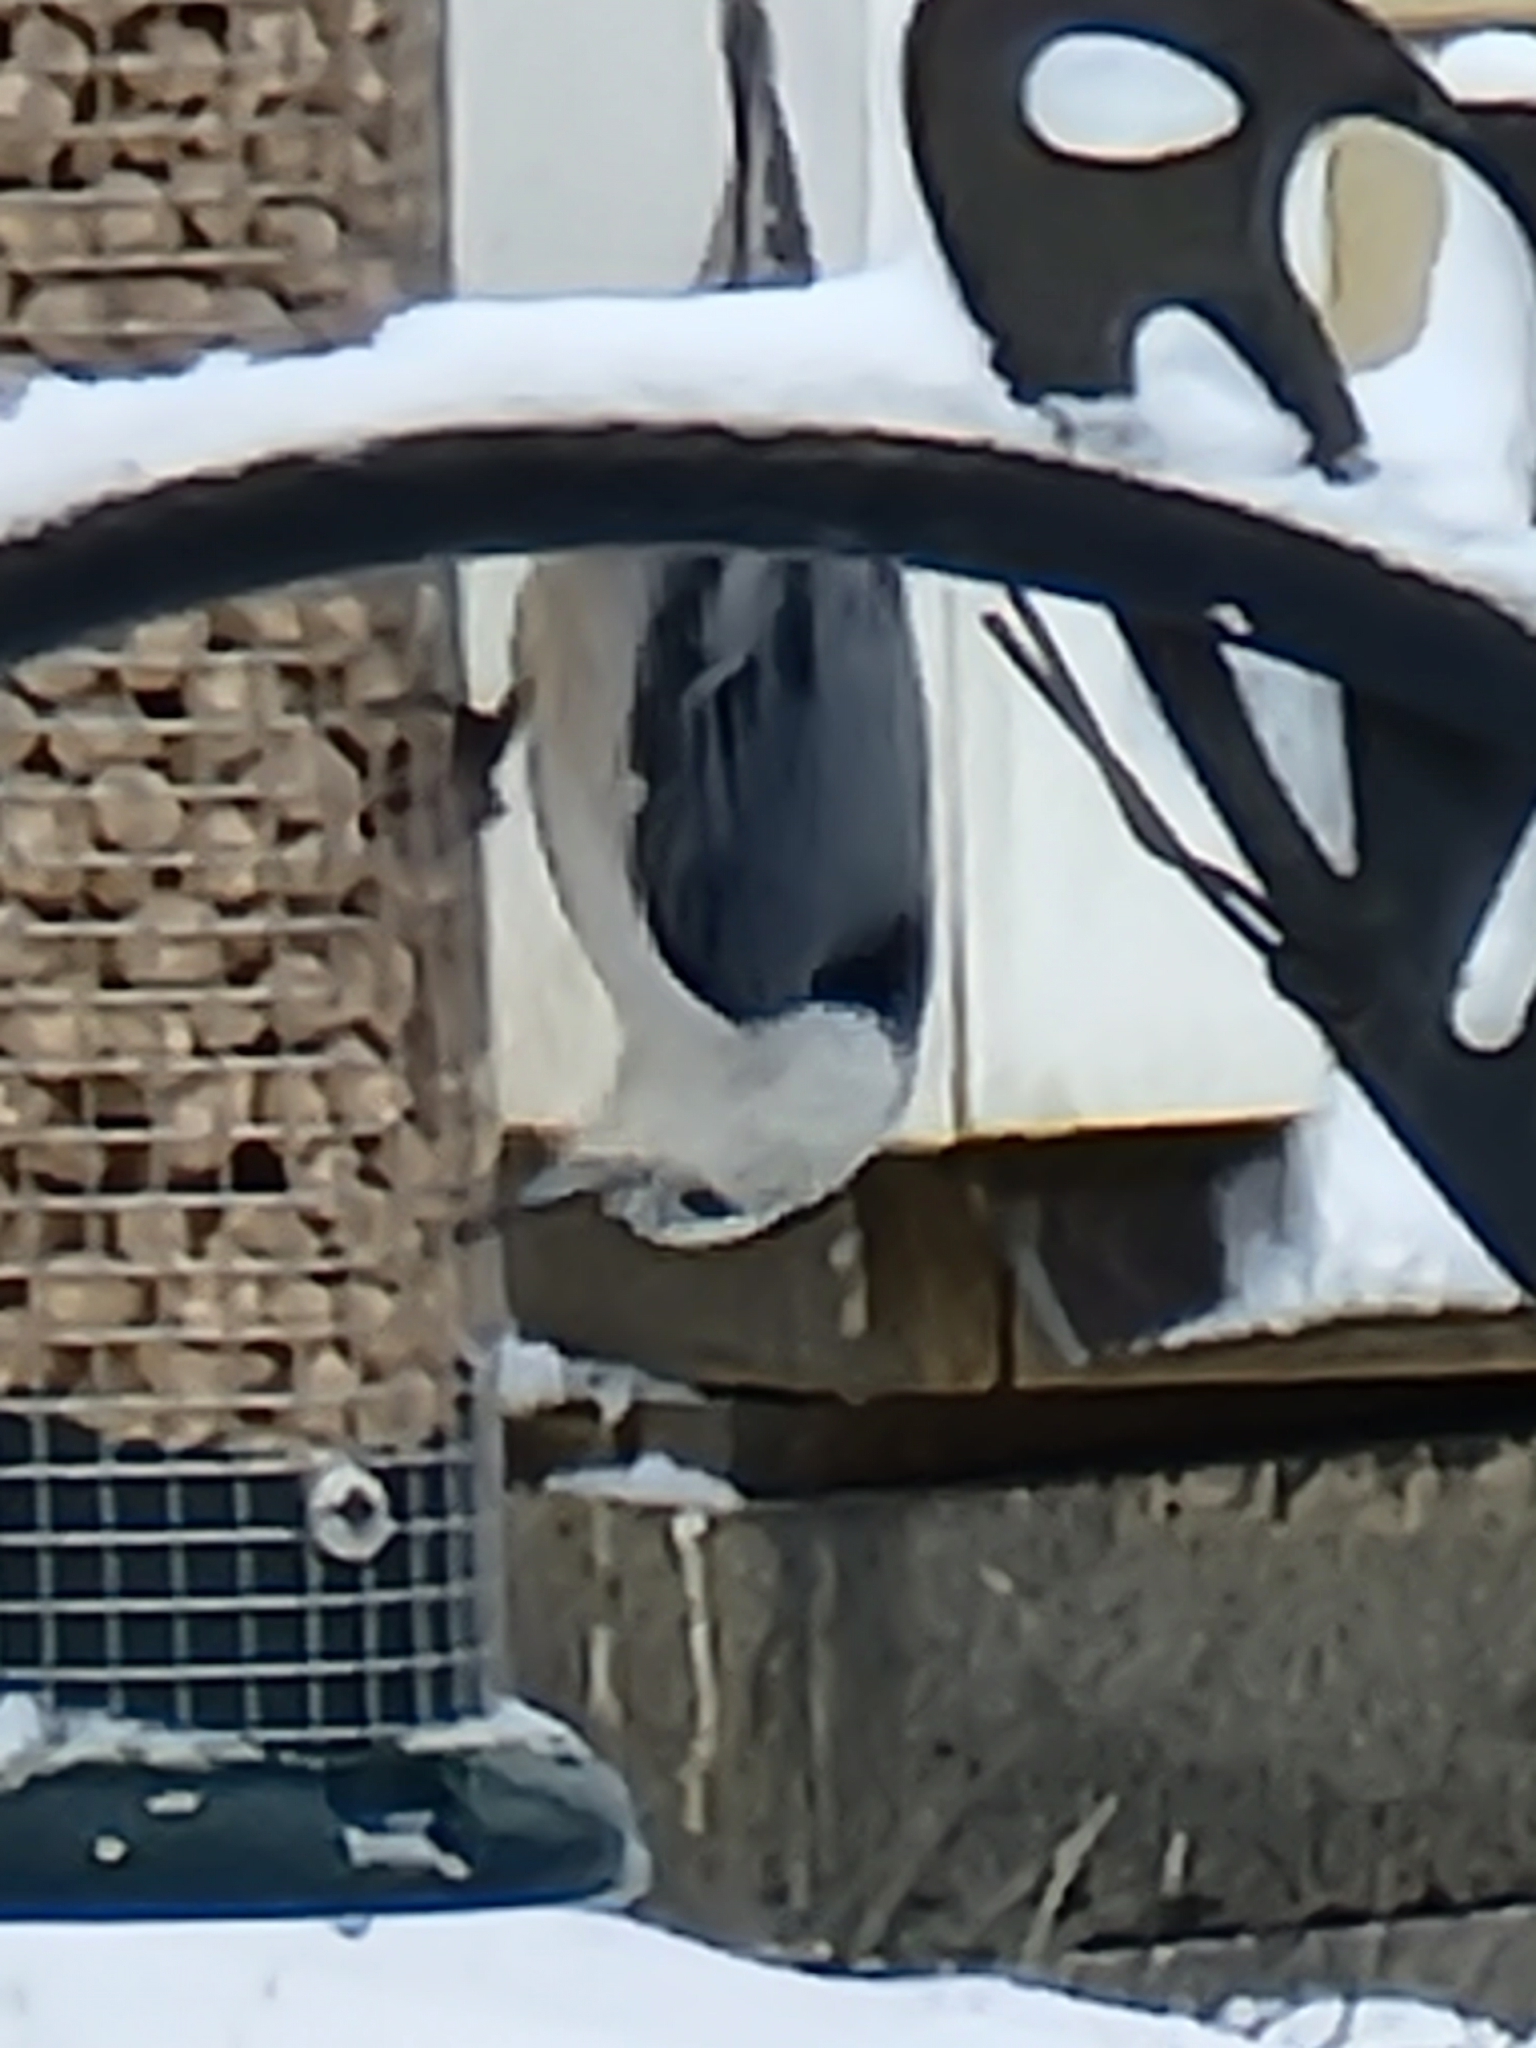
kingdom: Animalia
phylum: Chordata
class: Aves
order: Passeriformes
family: Sittidae
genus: Sitta
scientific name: Sitta carolinensis
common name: White-breasted nuthatch
